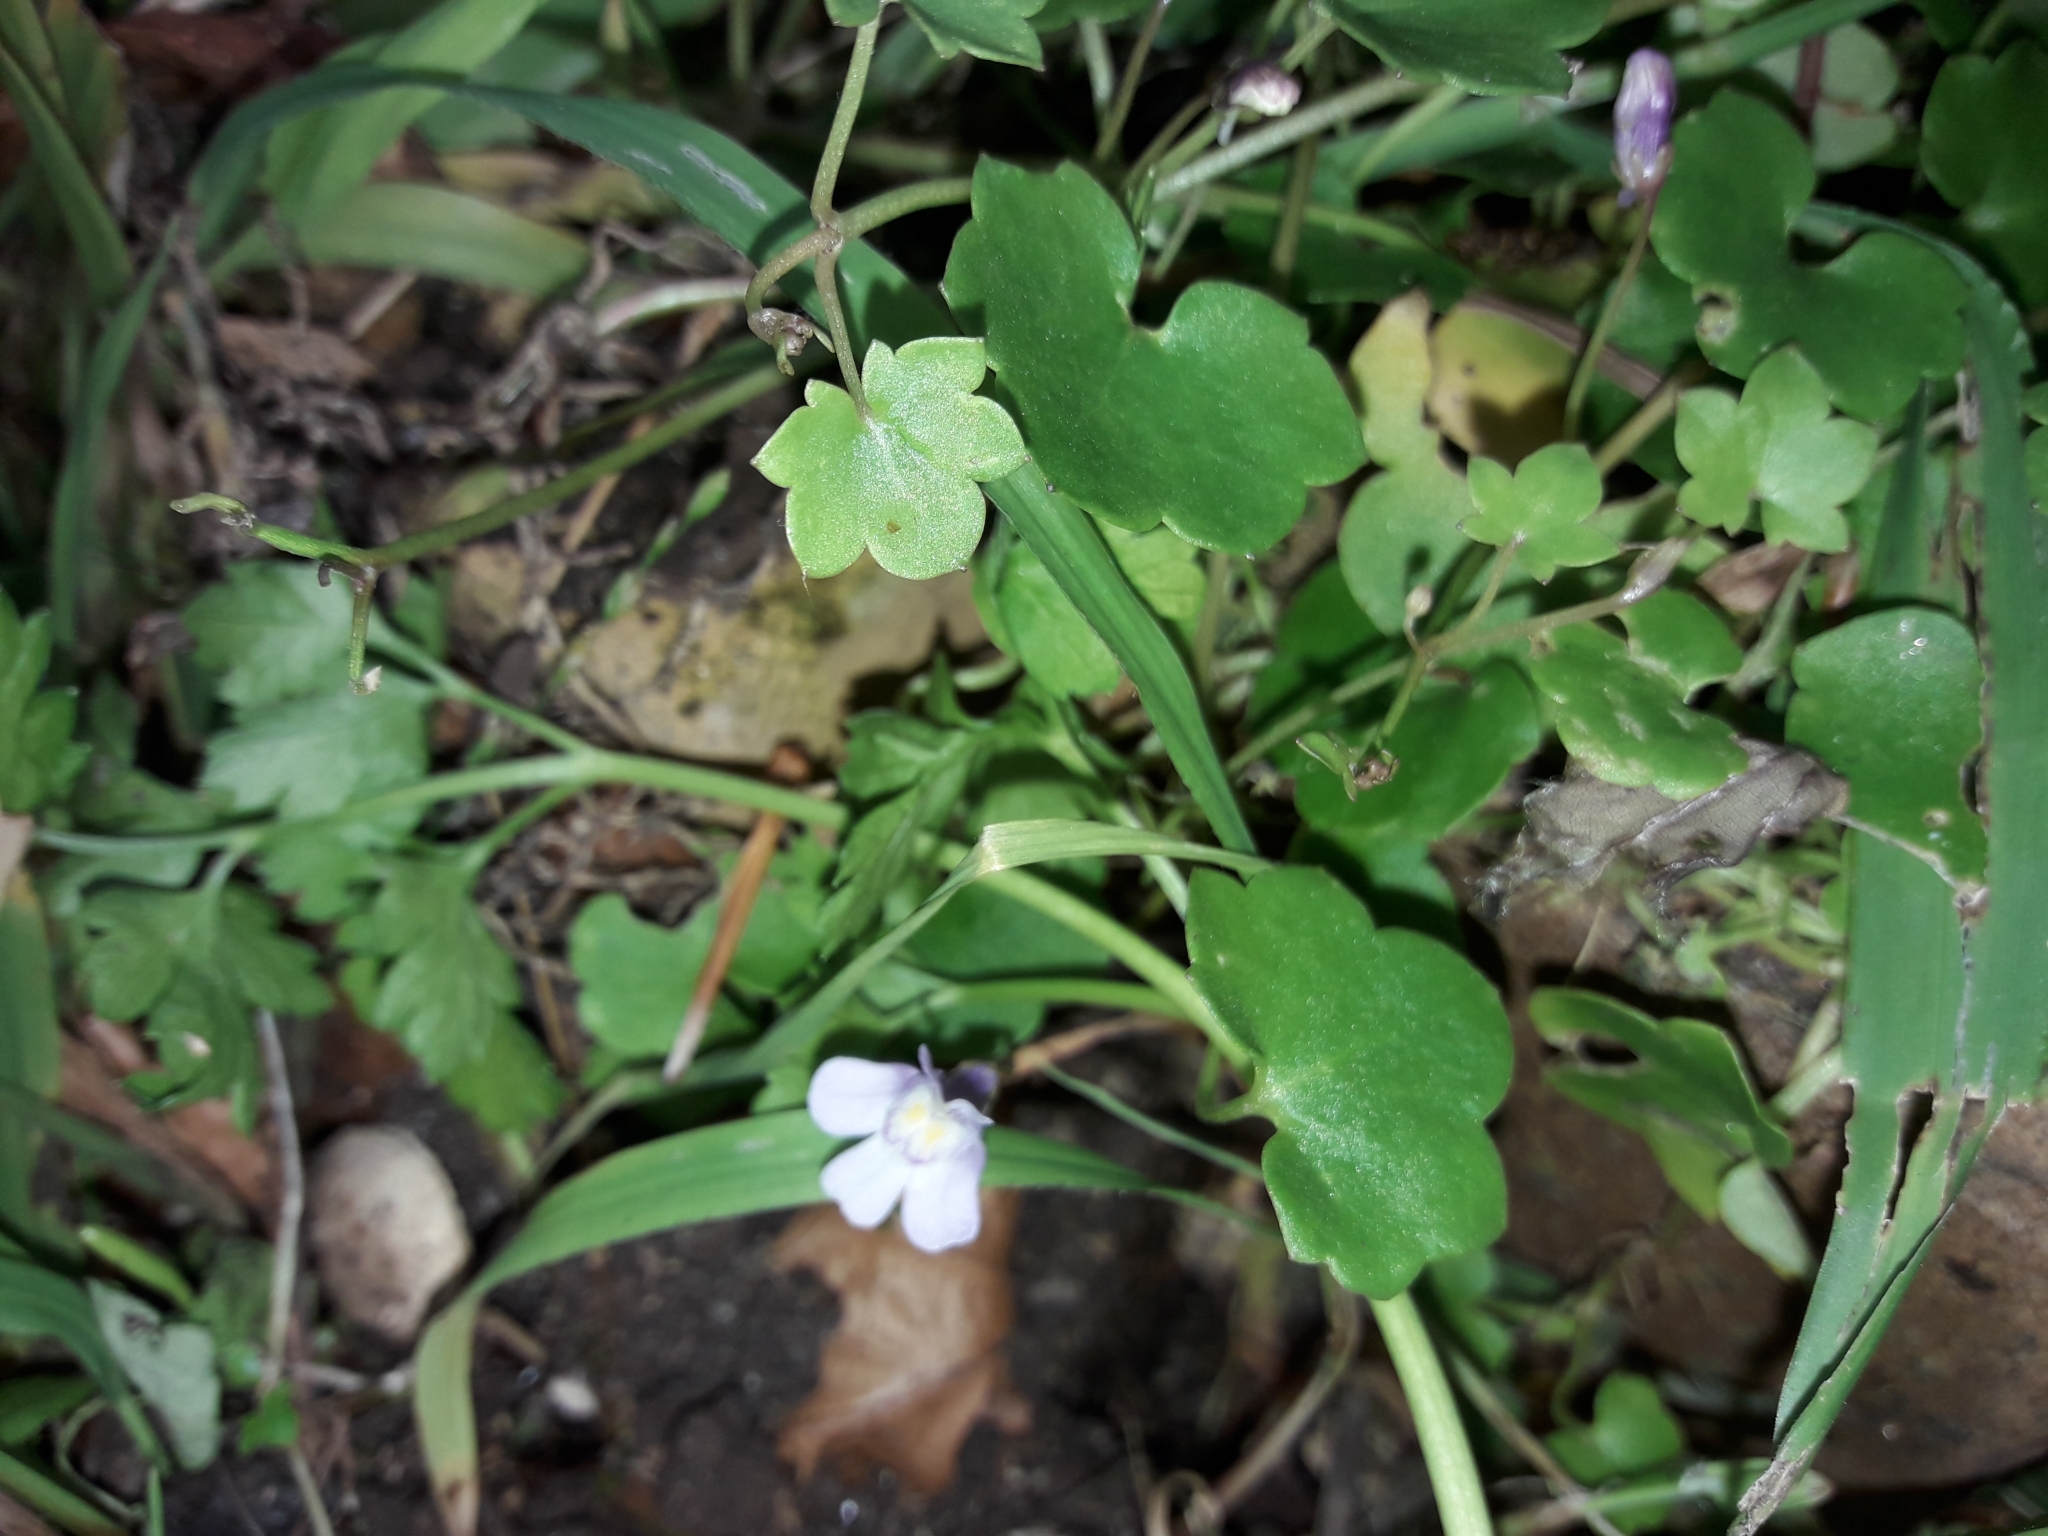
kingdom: Plantae
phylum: Tracheophyta
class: Magnoliopsida
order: Lamiales
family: Plantaginaceae
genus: Cymbalaria
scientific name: Cymbalaria muralis
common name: Ivy-leaved toadflax
